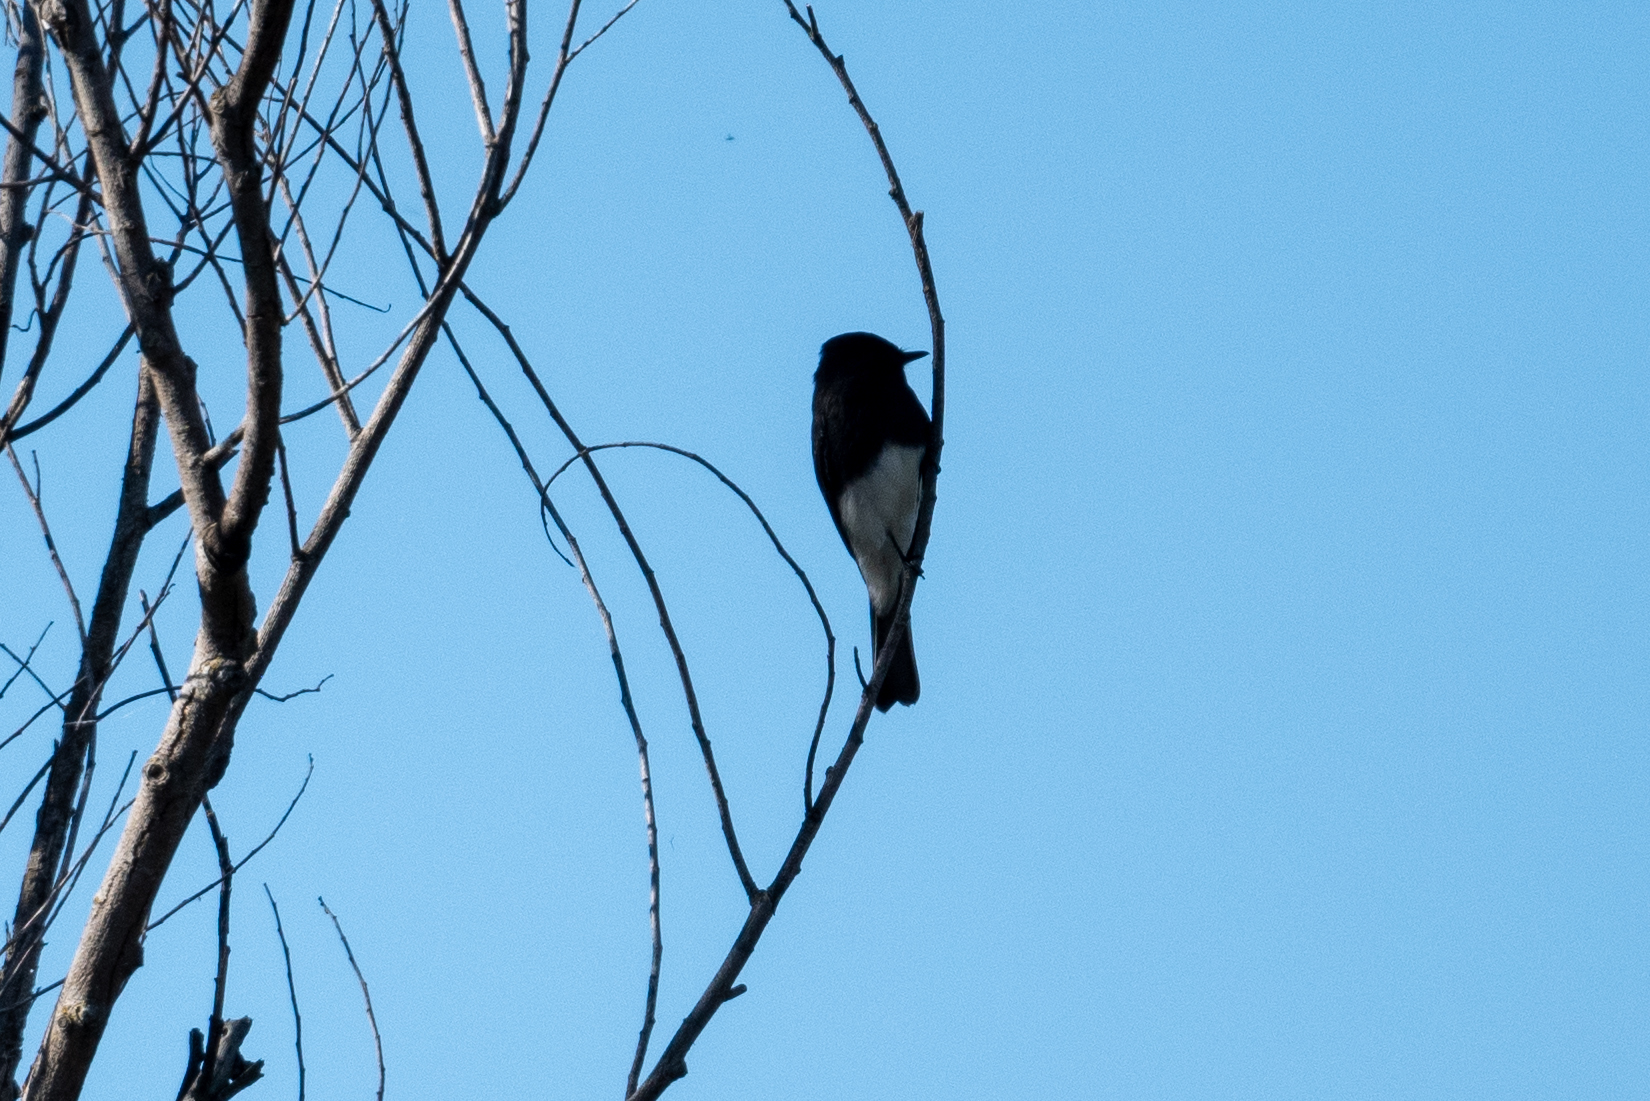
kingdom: Animalia
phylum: Chordata
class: Aves
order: Passeriformes
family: Tyrannidae
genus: Sayornis
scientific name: Sayornis nigricans
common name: Black phoebe
